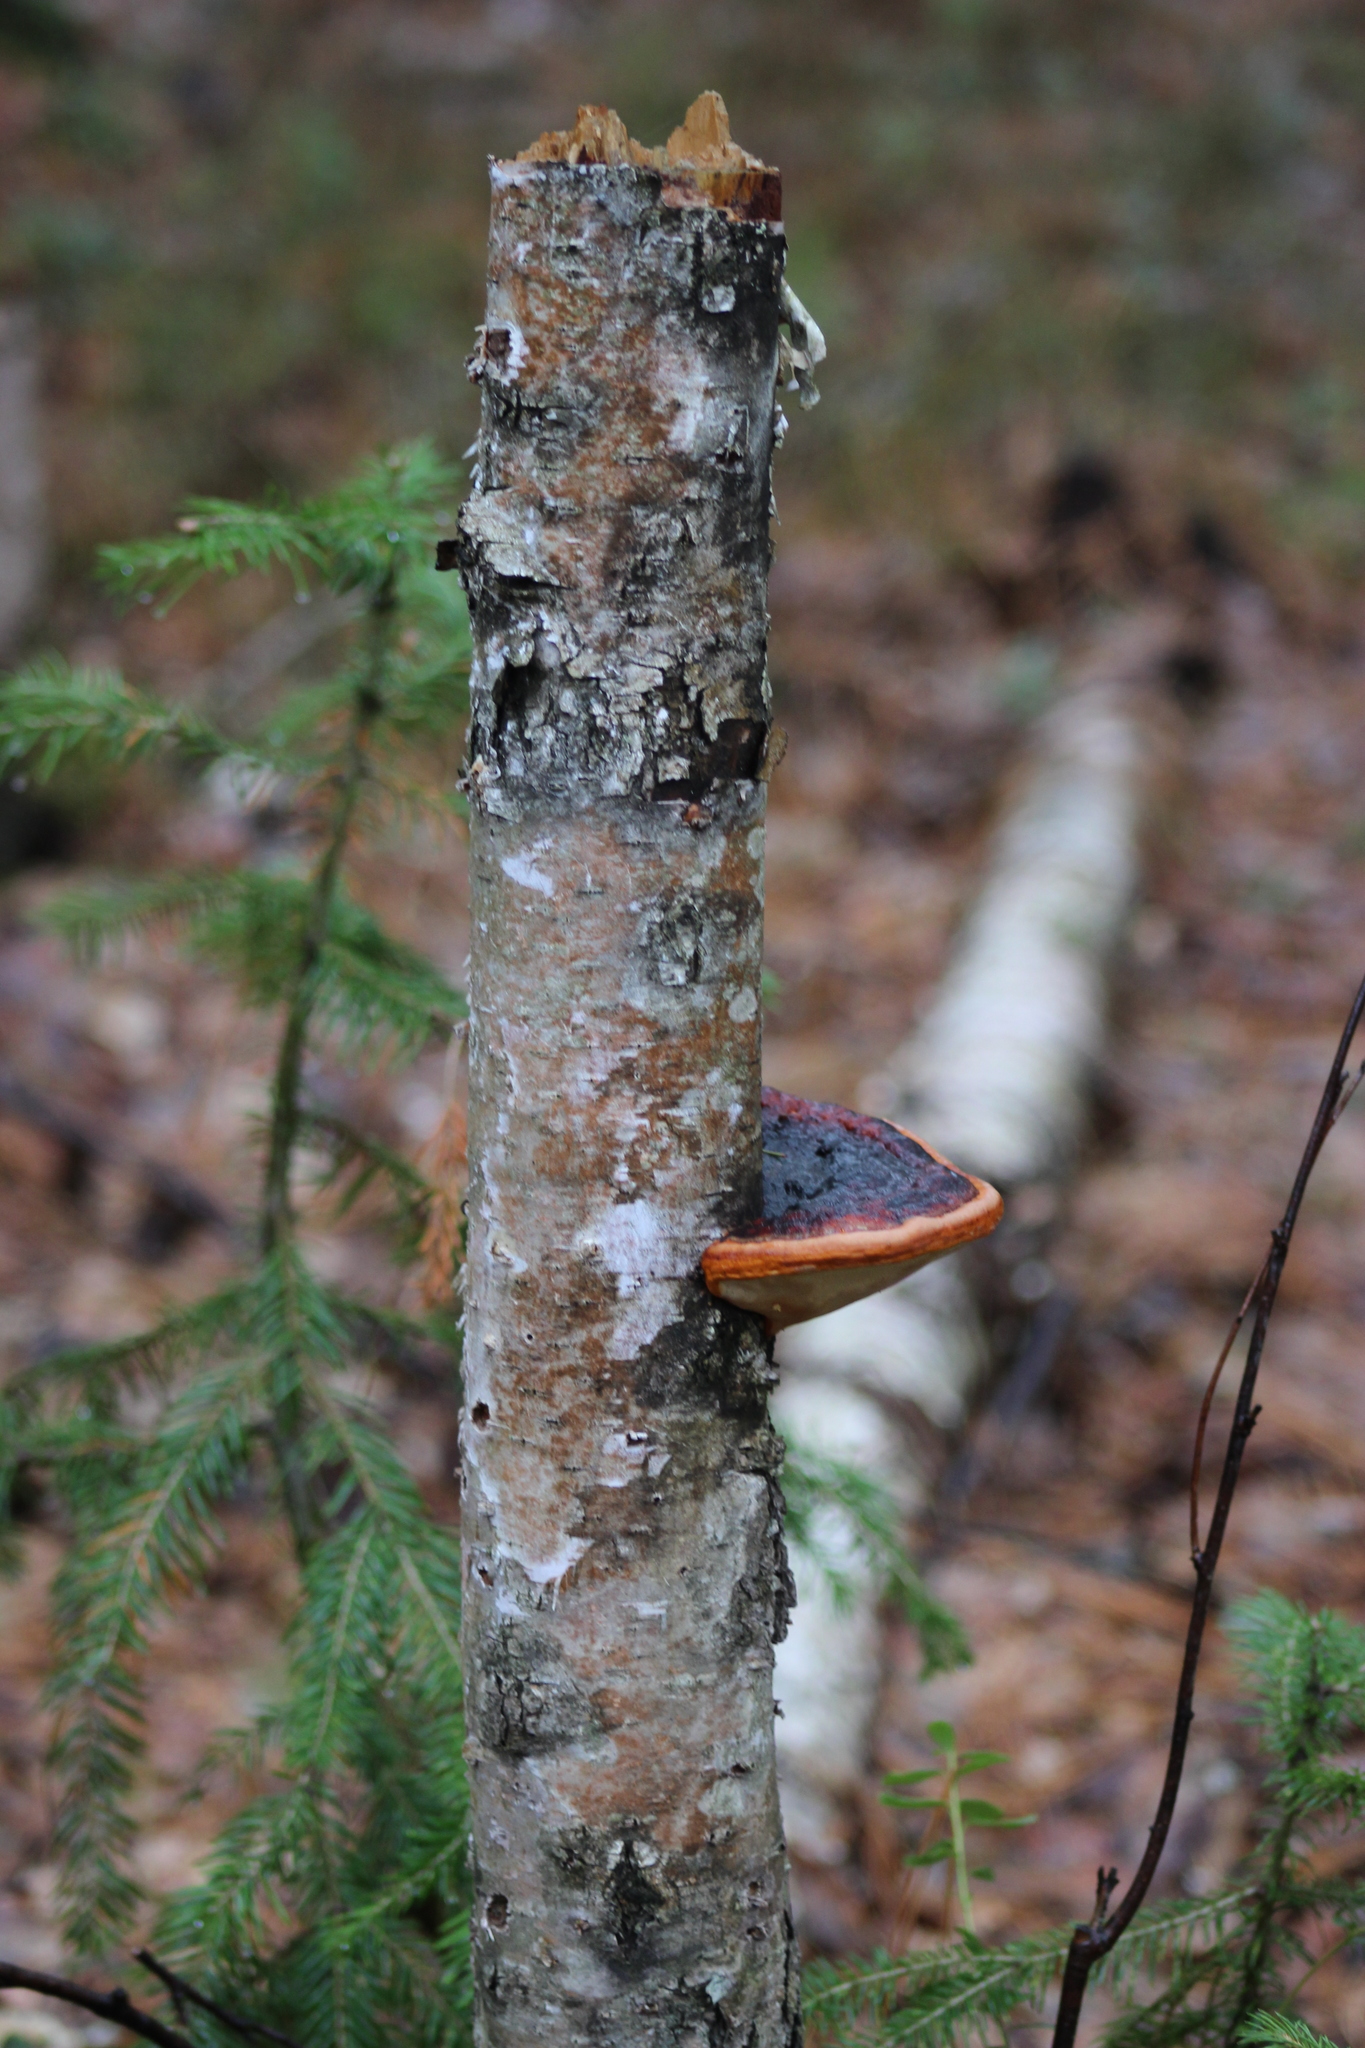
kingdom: Fungi
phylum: Basidiomycota
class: Agaricomycetes
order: Polyporales
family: Fomitopsidaceae
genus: Fomitopsis
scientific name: Fomitopsis pinicola
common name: Red-belted bracket
